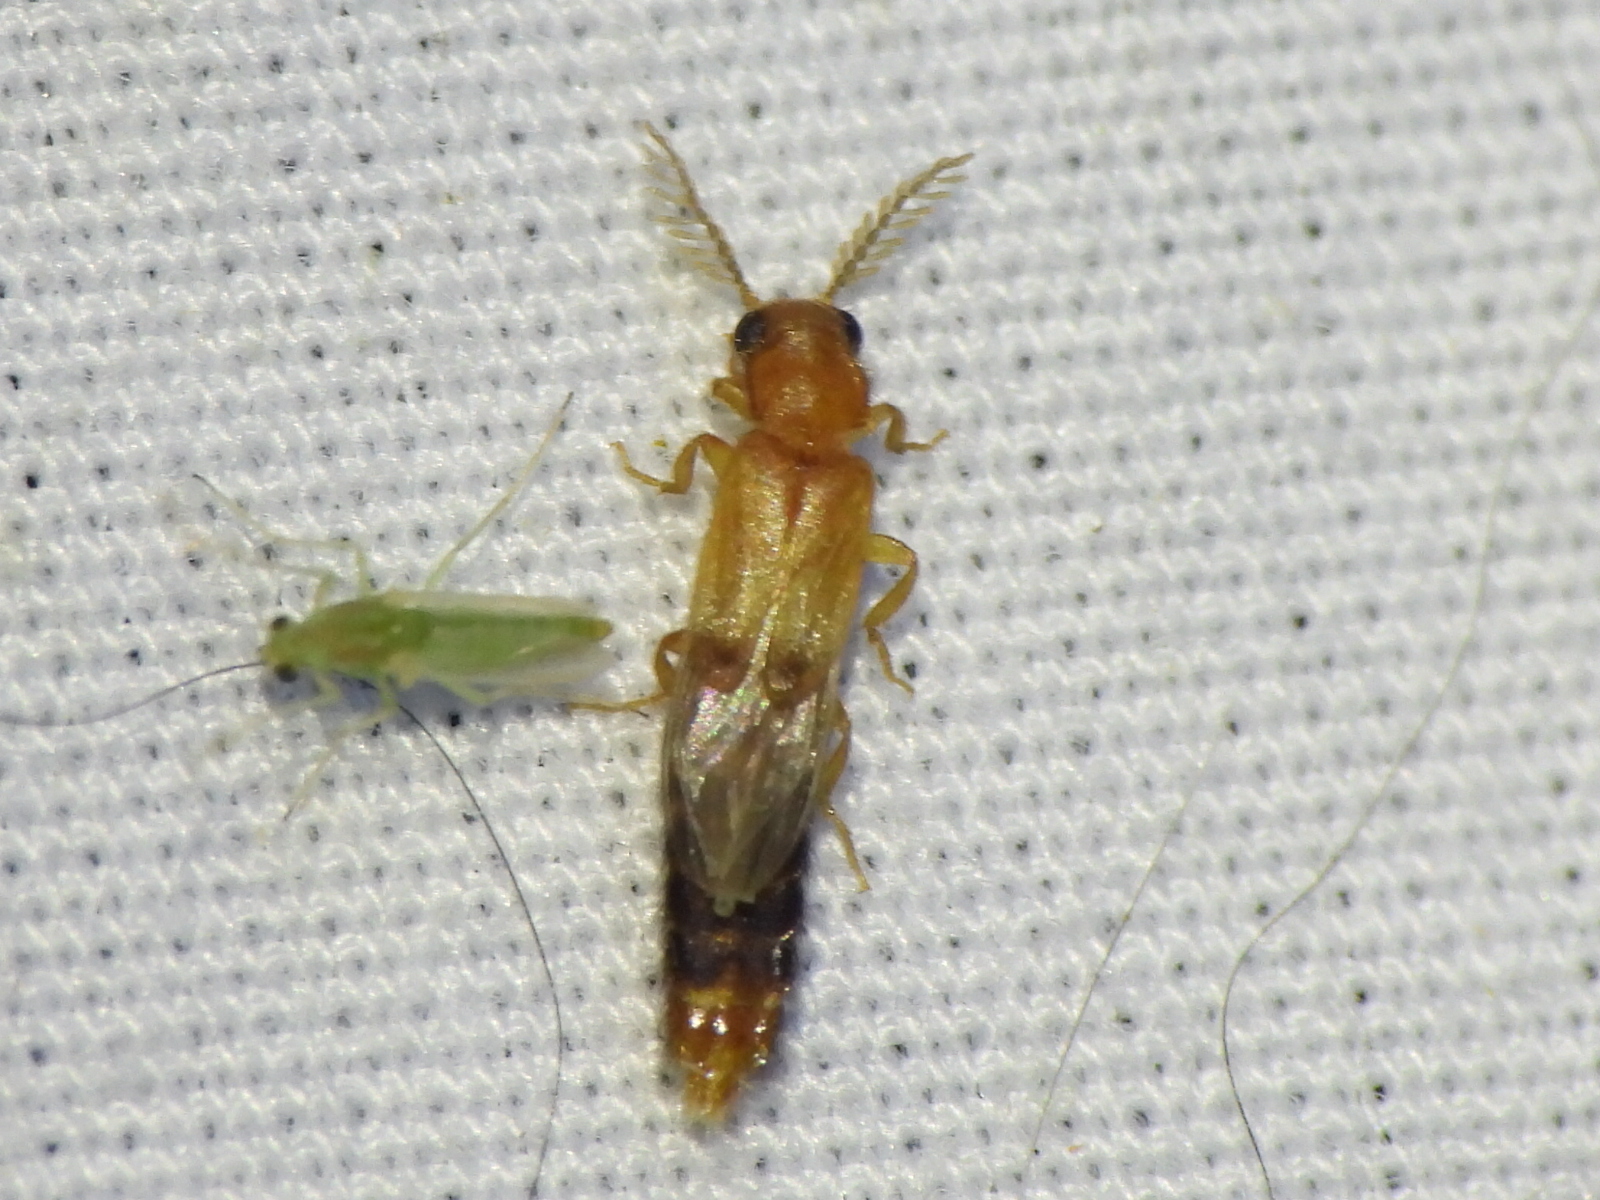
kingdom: Animalia
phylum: Arthropoda
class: Insecta
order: Coleoptera
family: Phengodidae
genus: Distremocephalus
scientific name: Distremocephalus texanus
